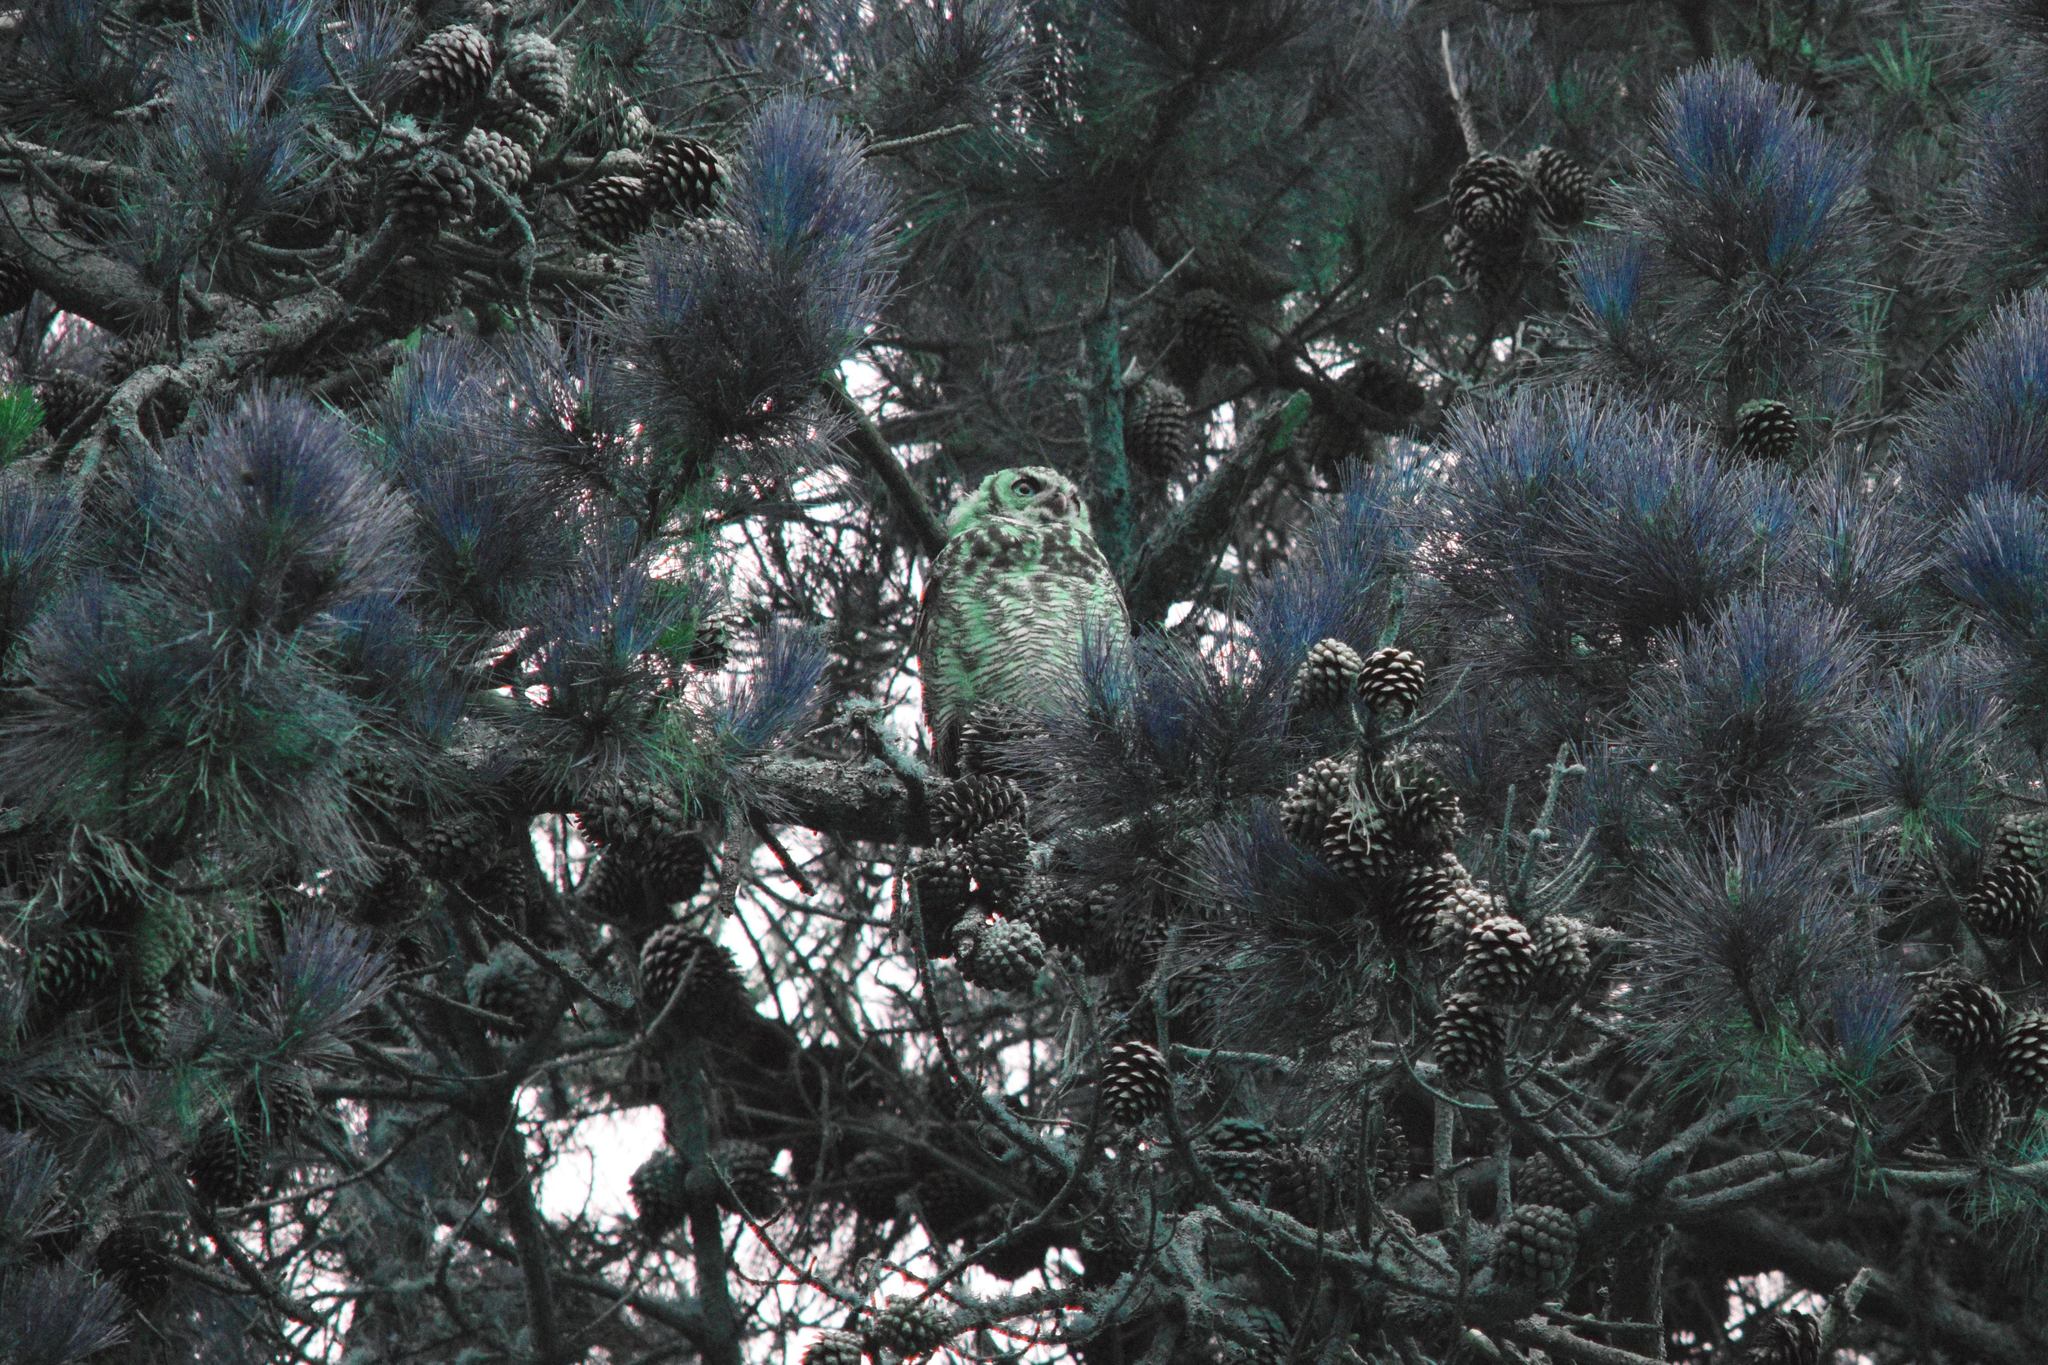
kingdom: Animalia
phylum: Chordata
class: Aves
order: Strigiformes
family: Strigidae
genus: Bubo
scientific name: Bubo virginianus
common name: Great horned owl
